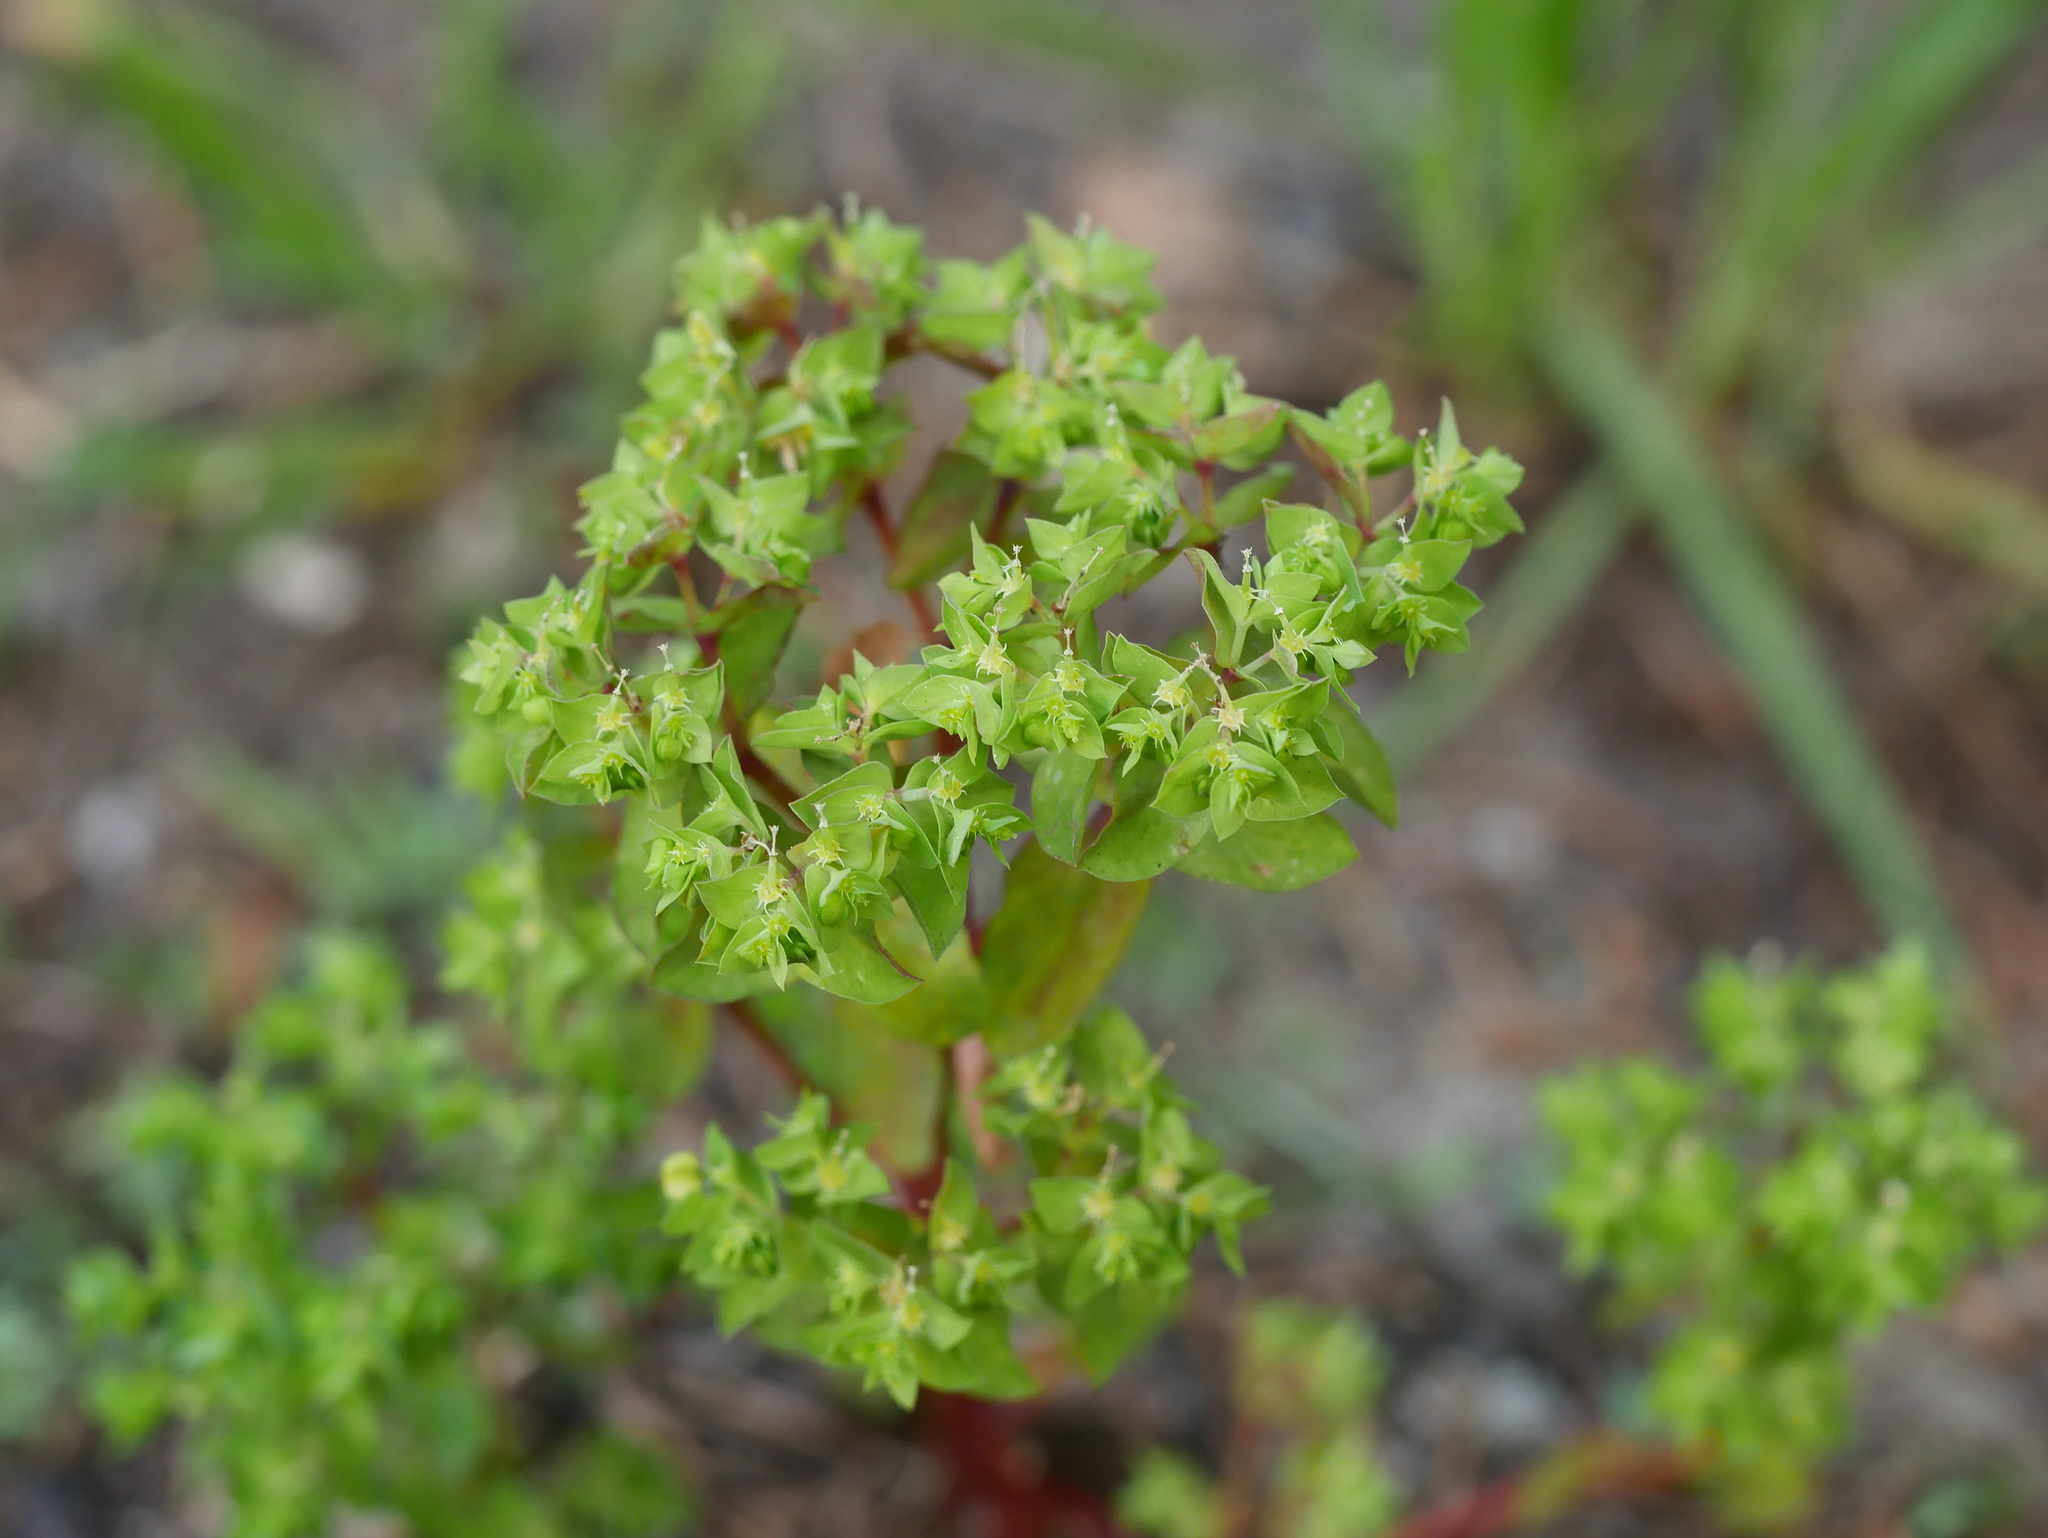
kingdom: Plantae
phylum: Tracheophyta
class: Magnoliopsida
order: Malpighiales
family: Euphorbiaceae
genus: Euphorbia
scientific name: Euphorbia peplus
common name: Petty spurge
